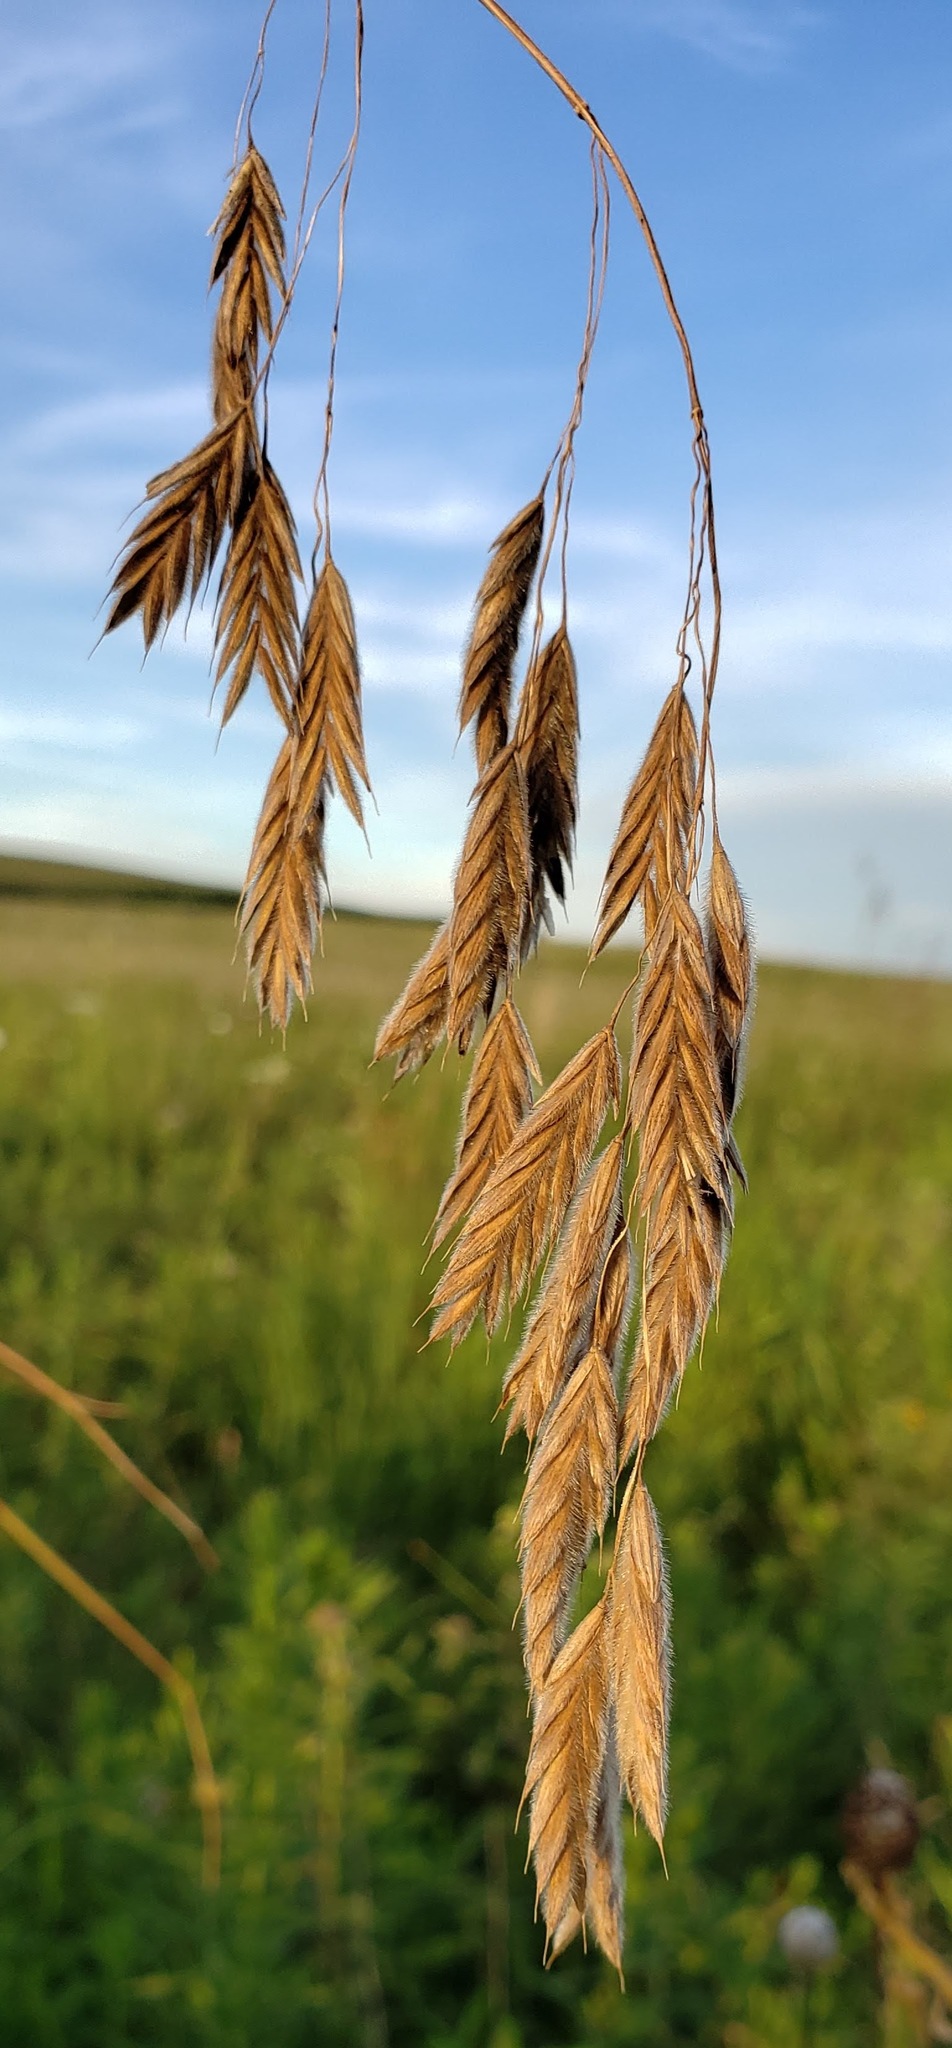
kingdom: Plantae
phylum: Tracheophyta
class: Liliopsida
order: Poales
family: Poaceae
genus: Bromus
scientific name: Bromus kalmii
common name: Kalm brome
